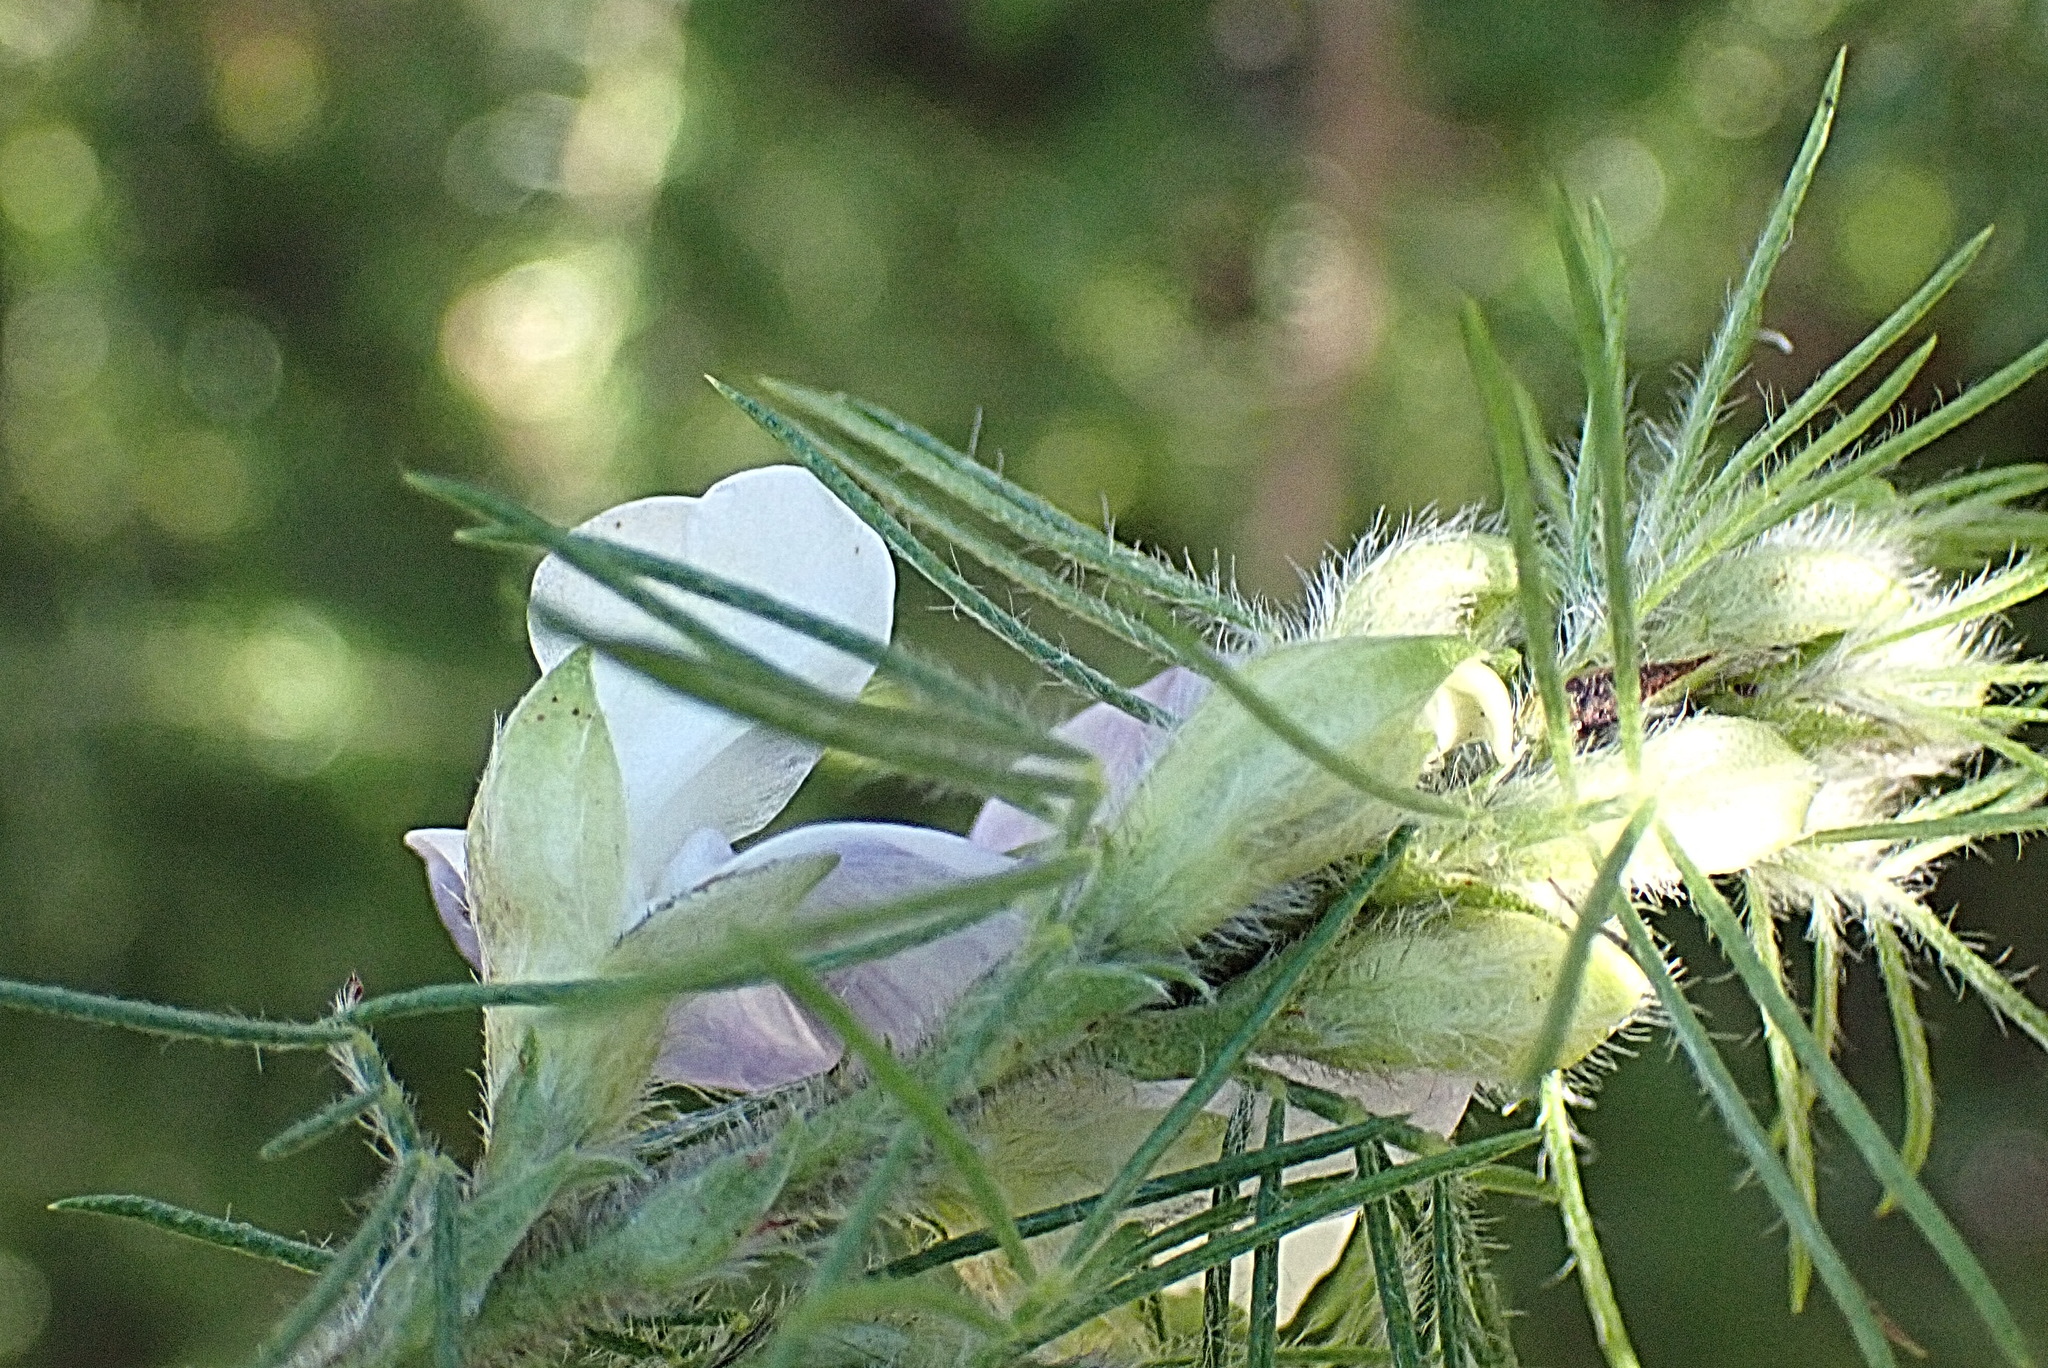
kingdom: Plantae
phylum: Tracheophyta
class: Magnoliopsida
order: Fabales
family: Fabaceae
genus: Psoralea
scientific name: Psoralea floccosa
